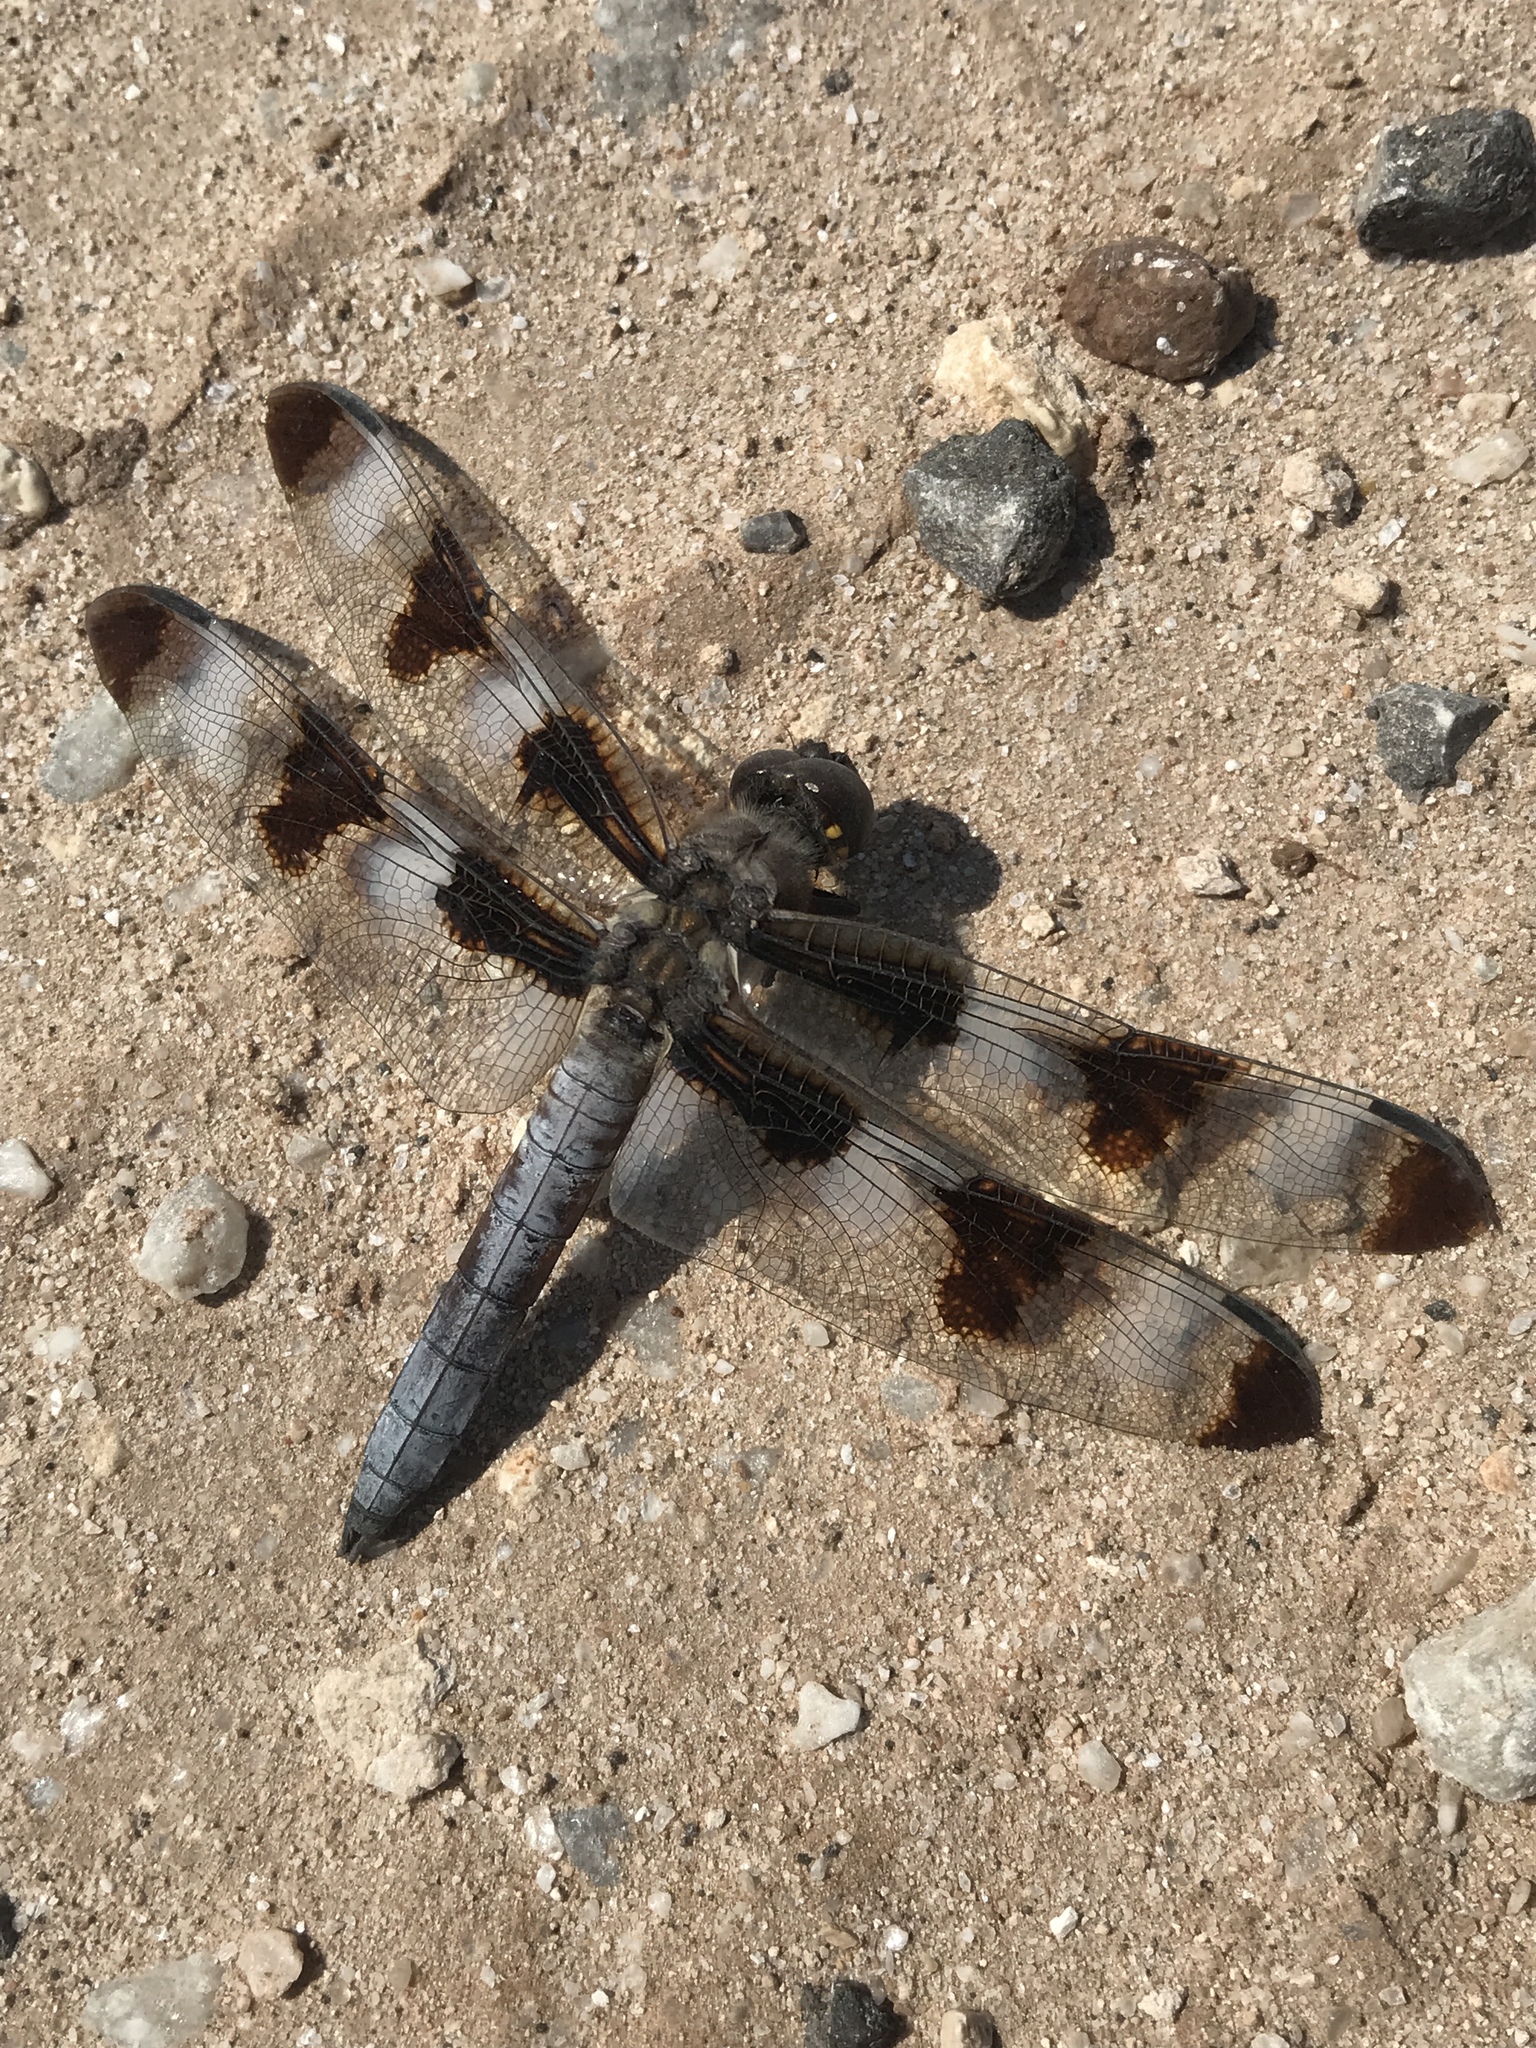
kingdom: Animalia
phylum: Arthropoda
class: Insecta
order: Odonata
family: Libellulidae
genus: Libellula
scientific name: Libellula pulchella
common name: Twelve-spotted skimmer
